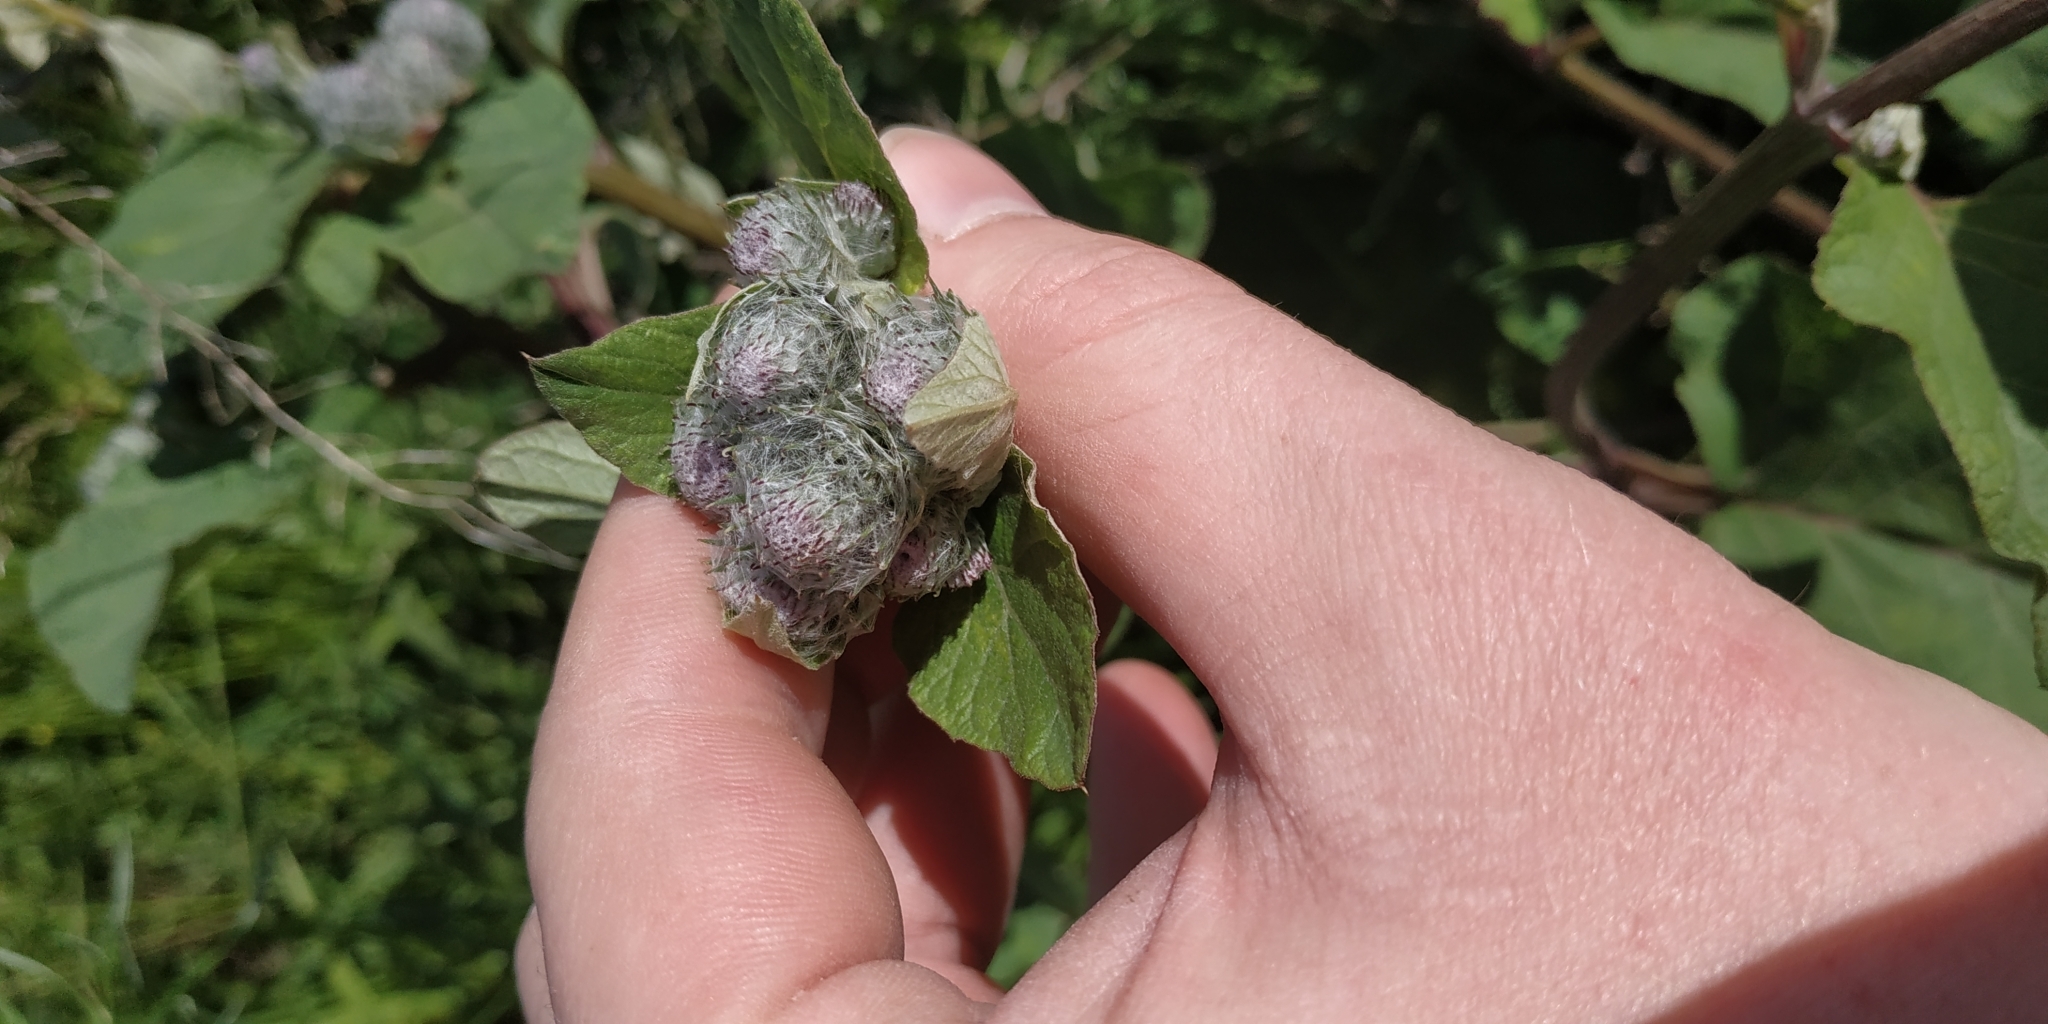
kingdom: Plantae
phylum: Tracheophyta
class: Magnoliopsida
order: Asterales
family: Asteraceae
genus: Arctium
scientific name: Arctium tomentosum
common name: Woolly burdock
